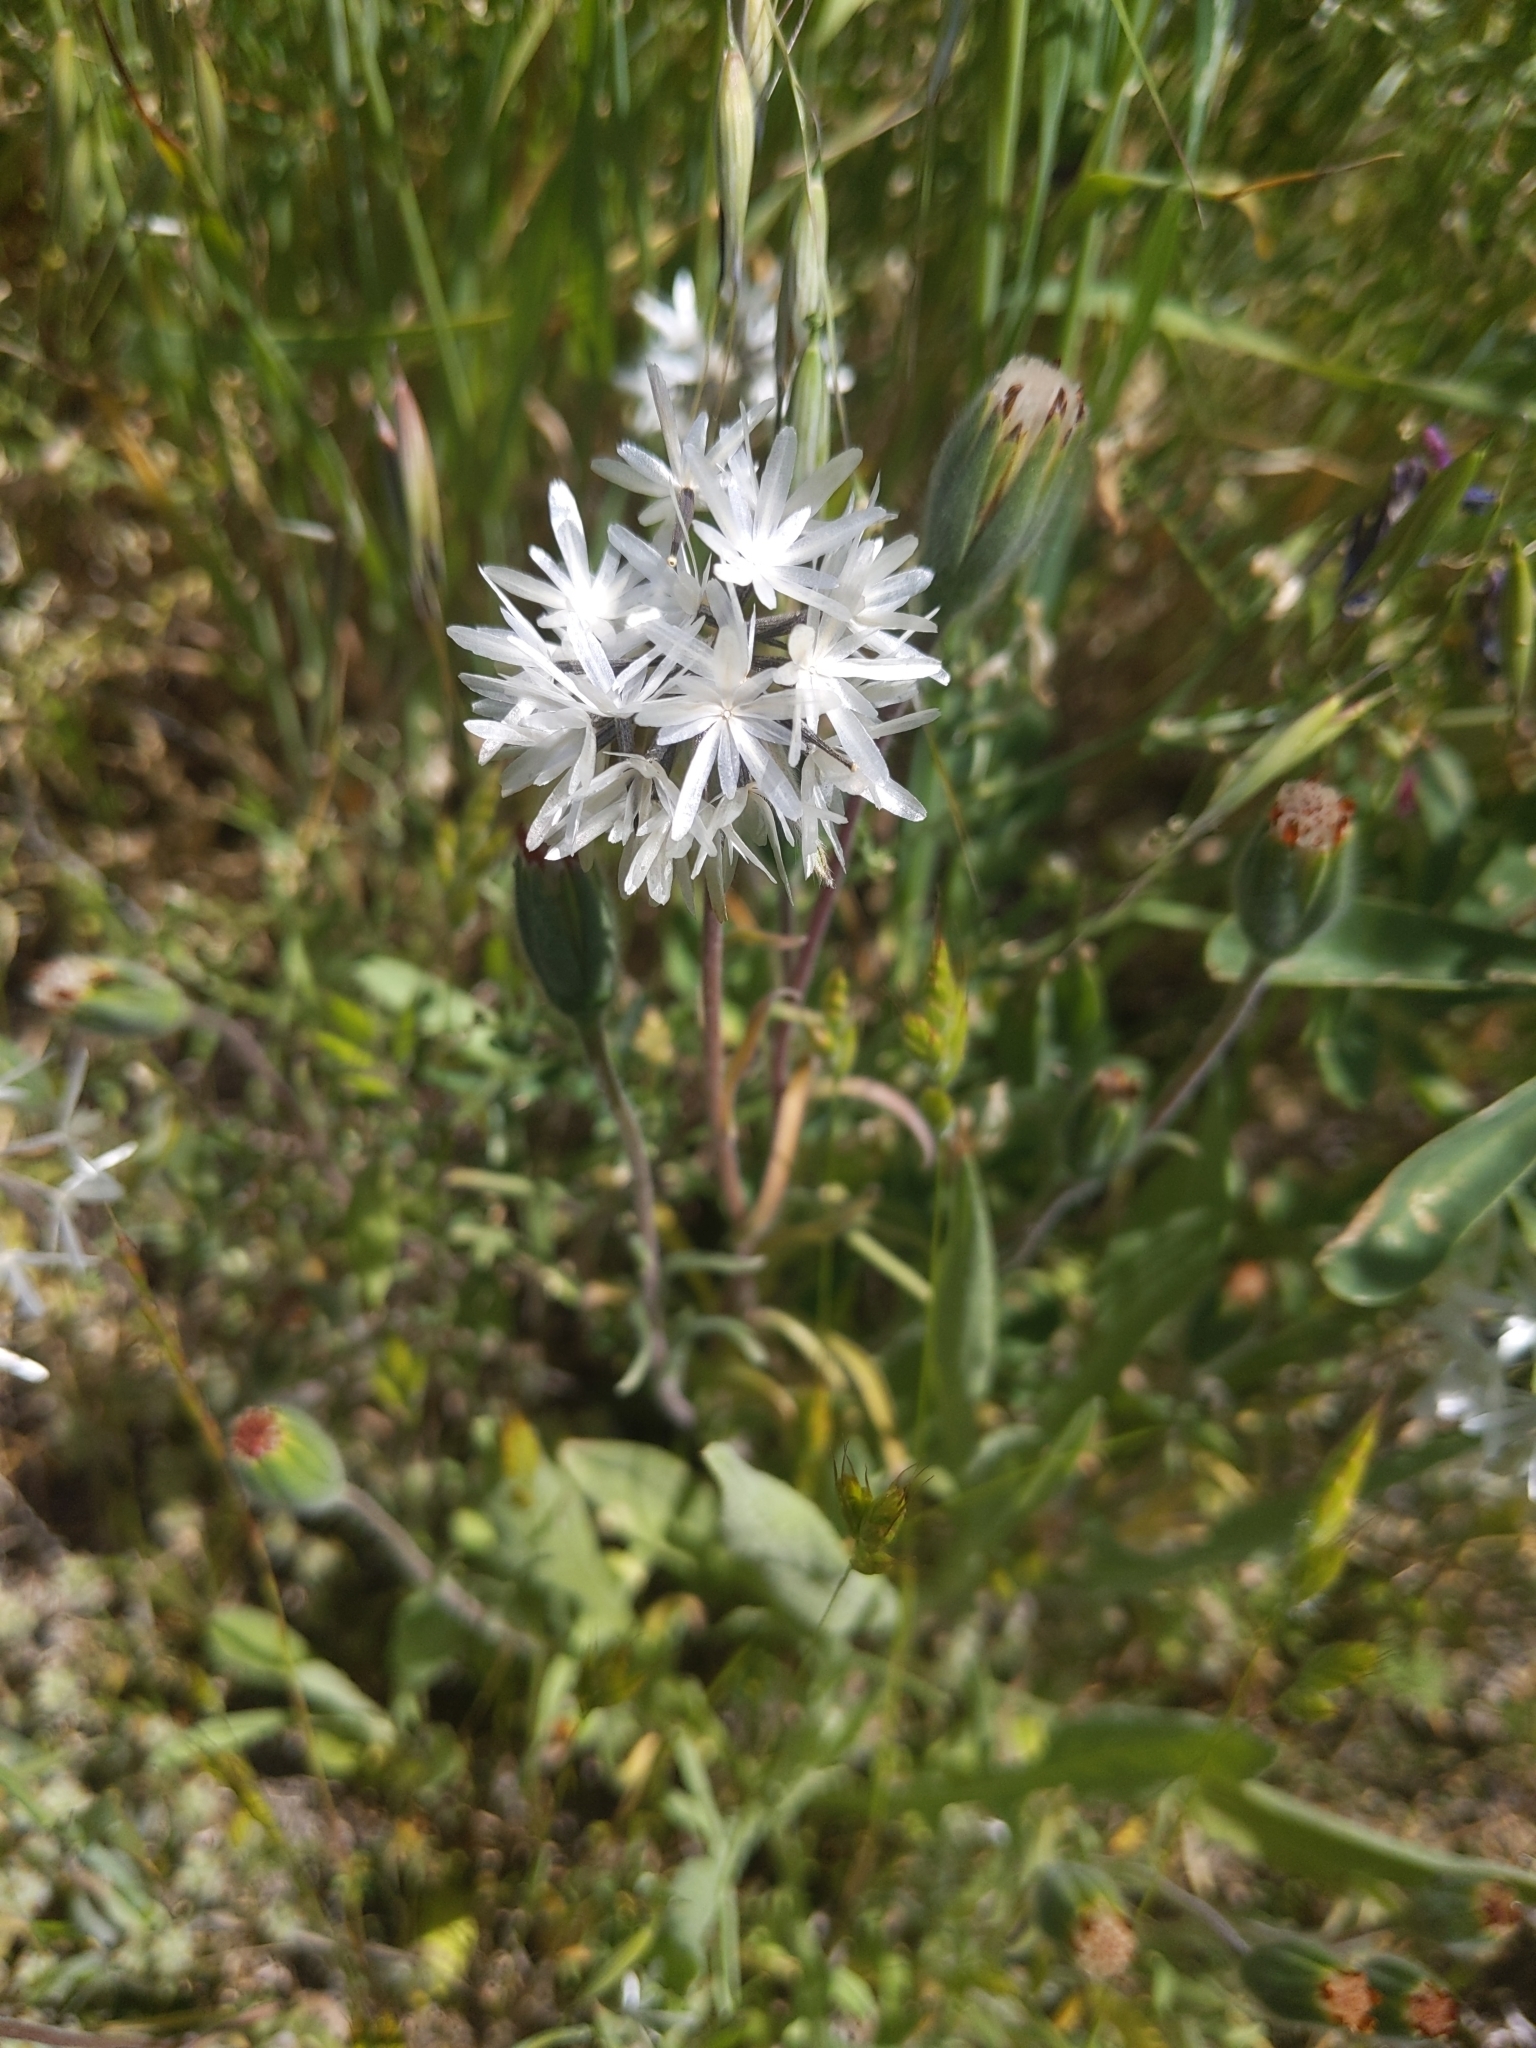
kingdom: Plantae
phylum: Tracheophyta
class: Magnoliopsida
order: Asterales
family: Asteraceae
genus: Achyrachaena
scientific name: Achyrachaena mollis
